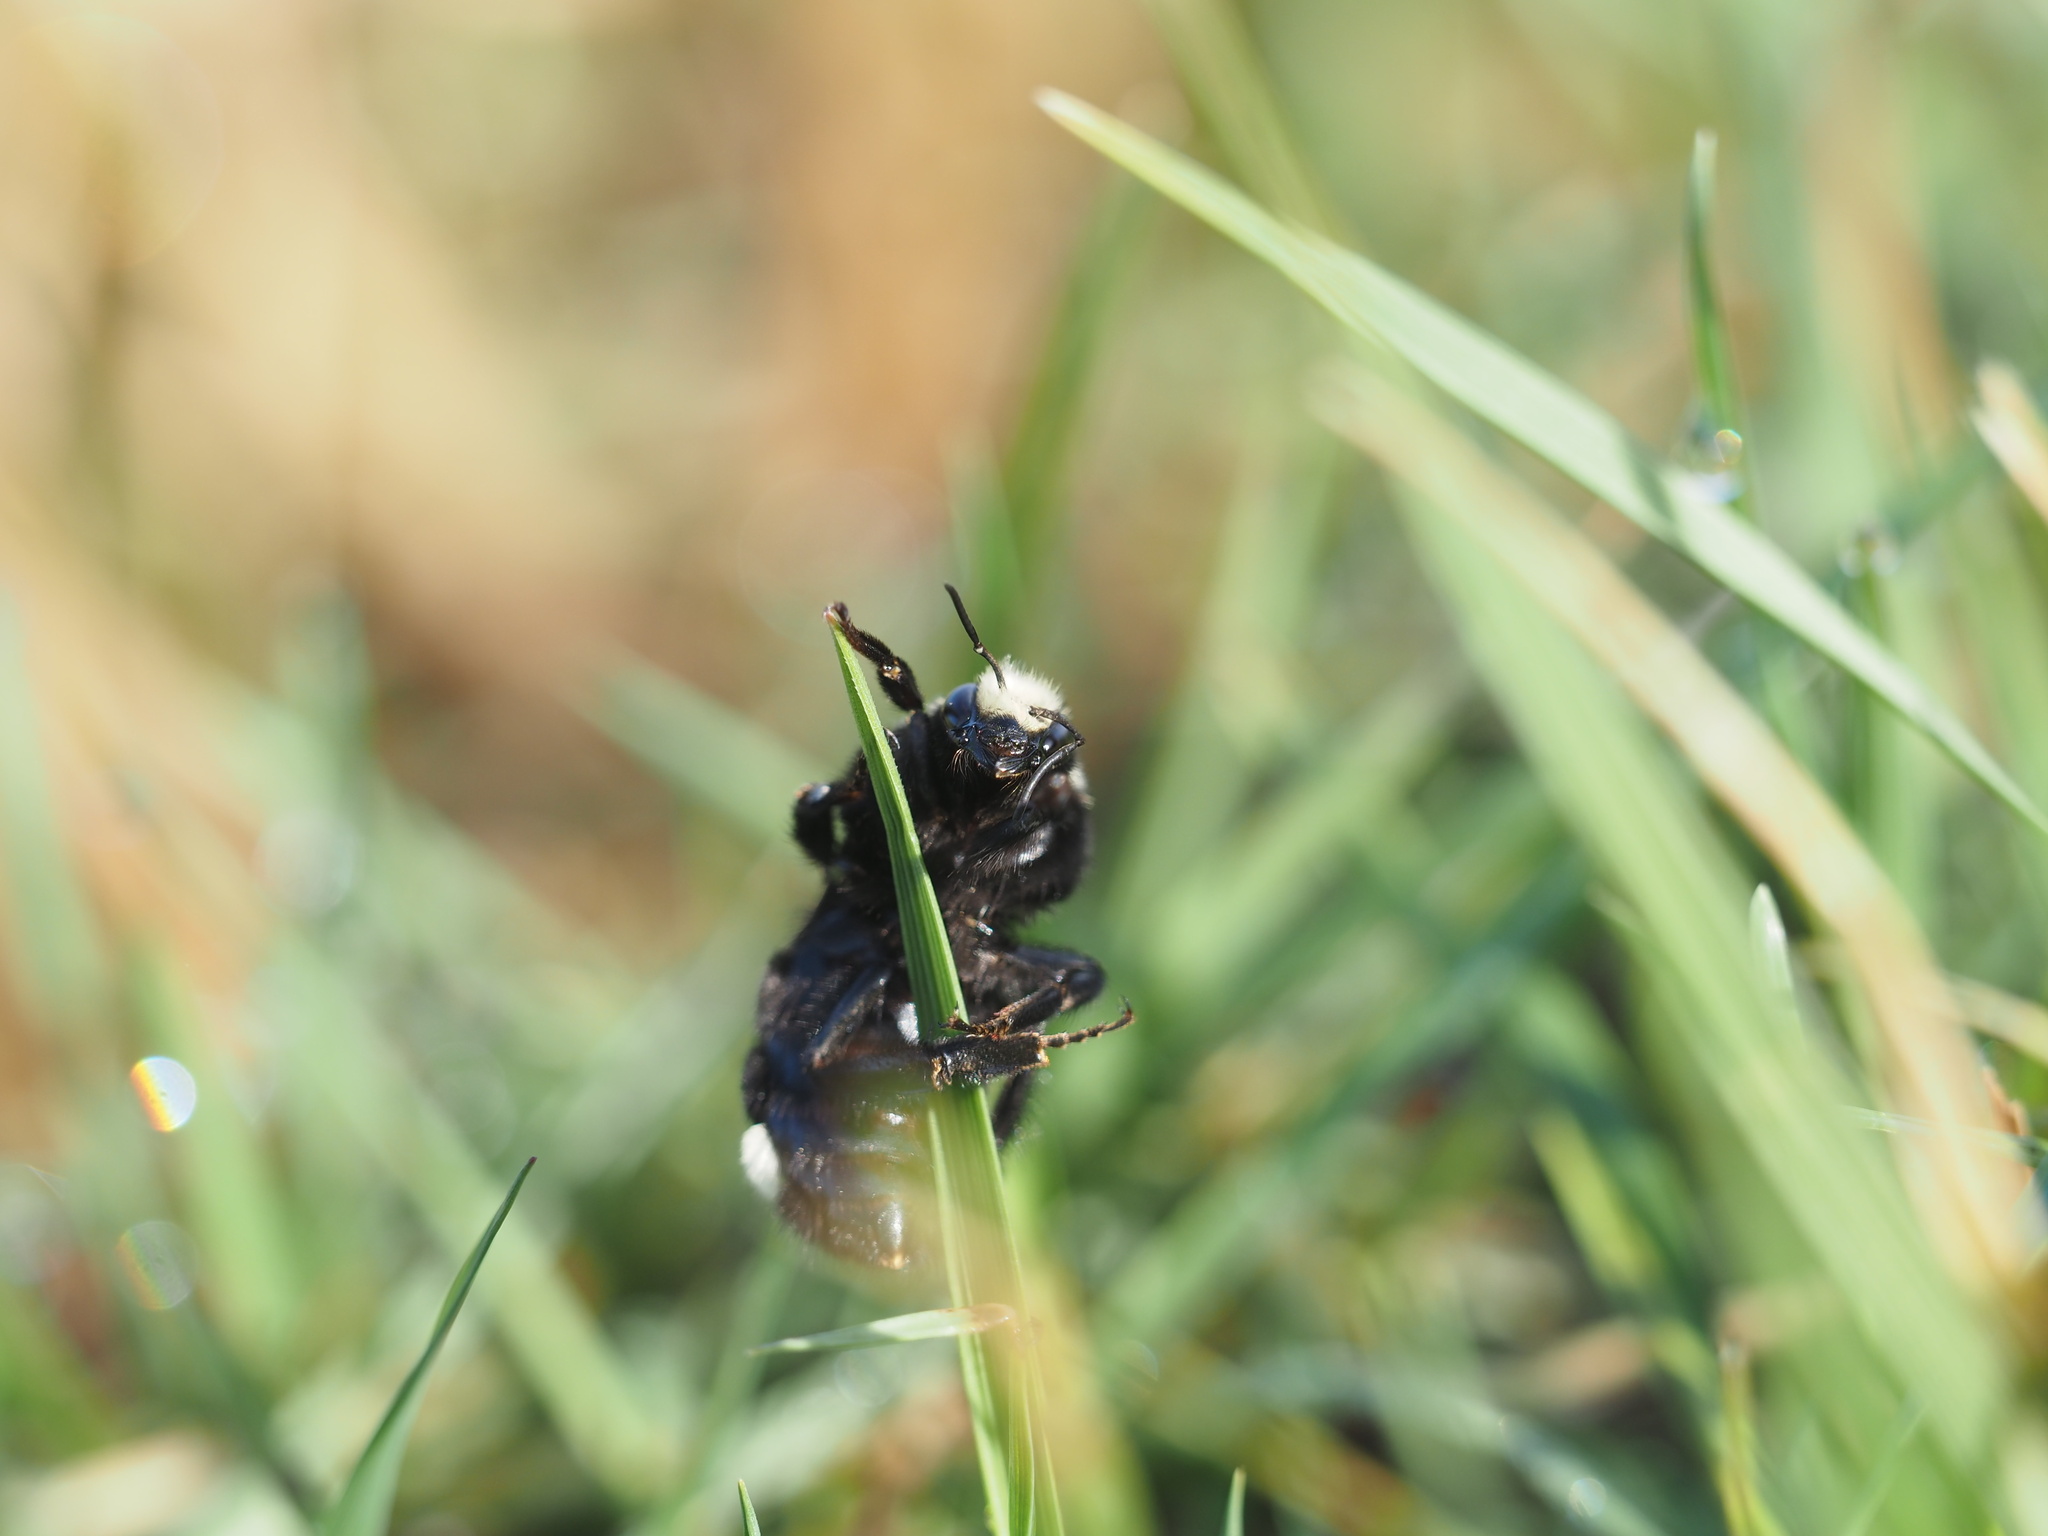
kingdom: Animalia
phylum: Arthropoda
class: Insecta
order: Hymenoptera
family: Apidae
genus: Bombus
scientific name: Bombus vosnesenskii
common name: Vosnesensky bumble bee
